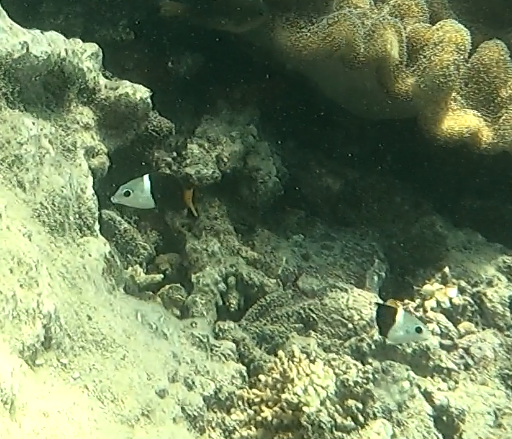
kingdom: Animalia
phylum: Chordata
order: Perciformes
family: Labridae
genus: Hemigymnus
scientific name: Hemigymnus melapterus
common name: Blackeye thicklip
